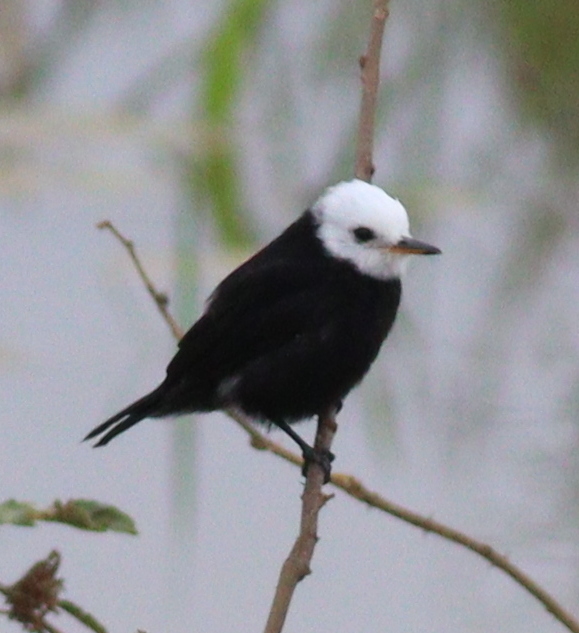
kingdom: Animalia
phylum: Chordata
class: Aves
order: Passeriformes
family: Tyrannidae
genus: Arundinicola
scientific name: Arundinicola leucocephala
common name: White-headed marsh tyrant
